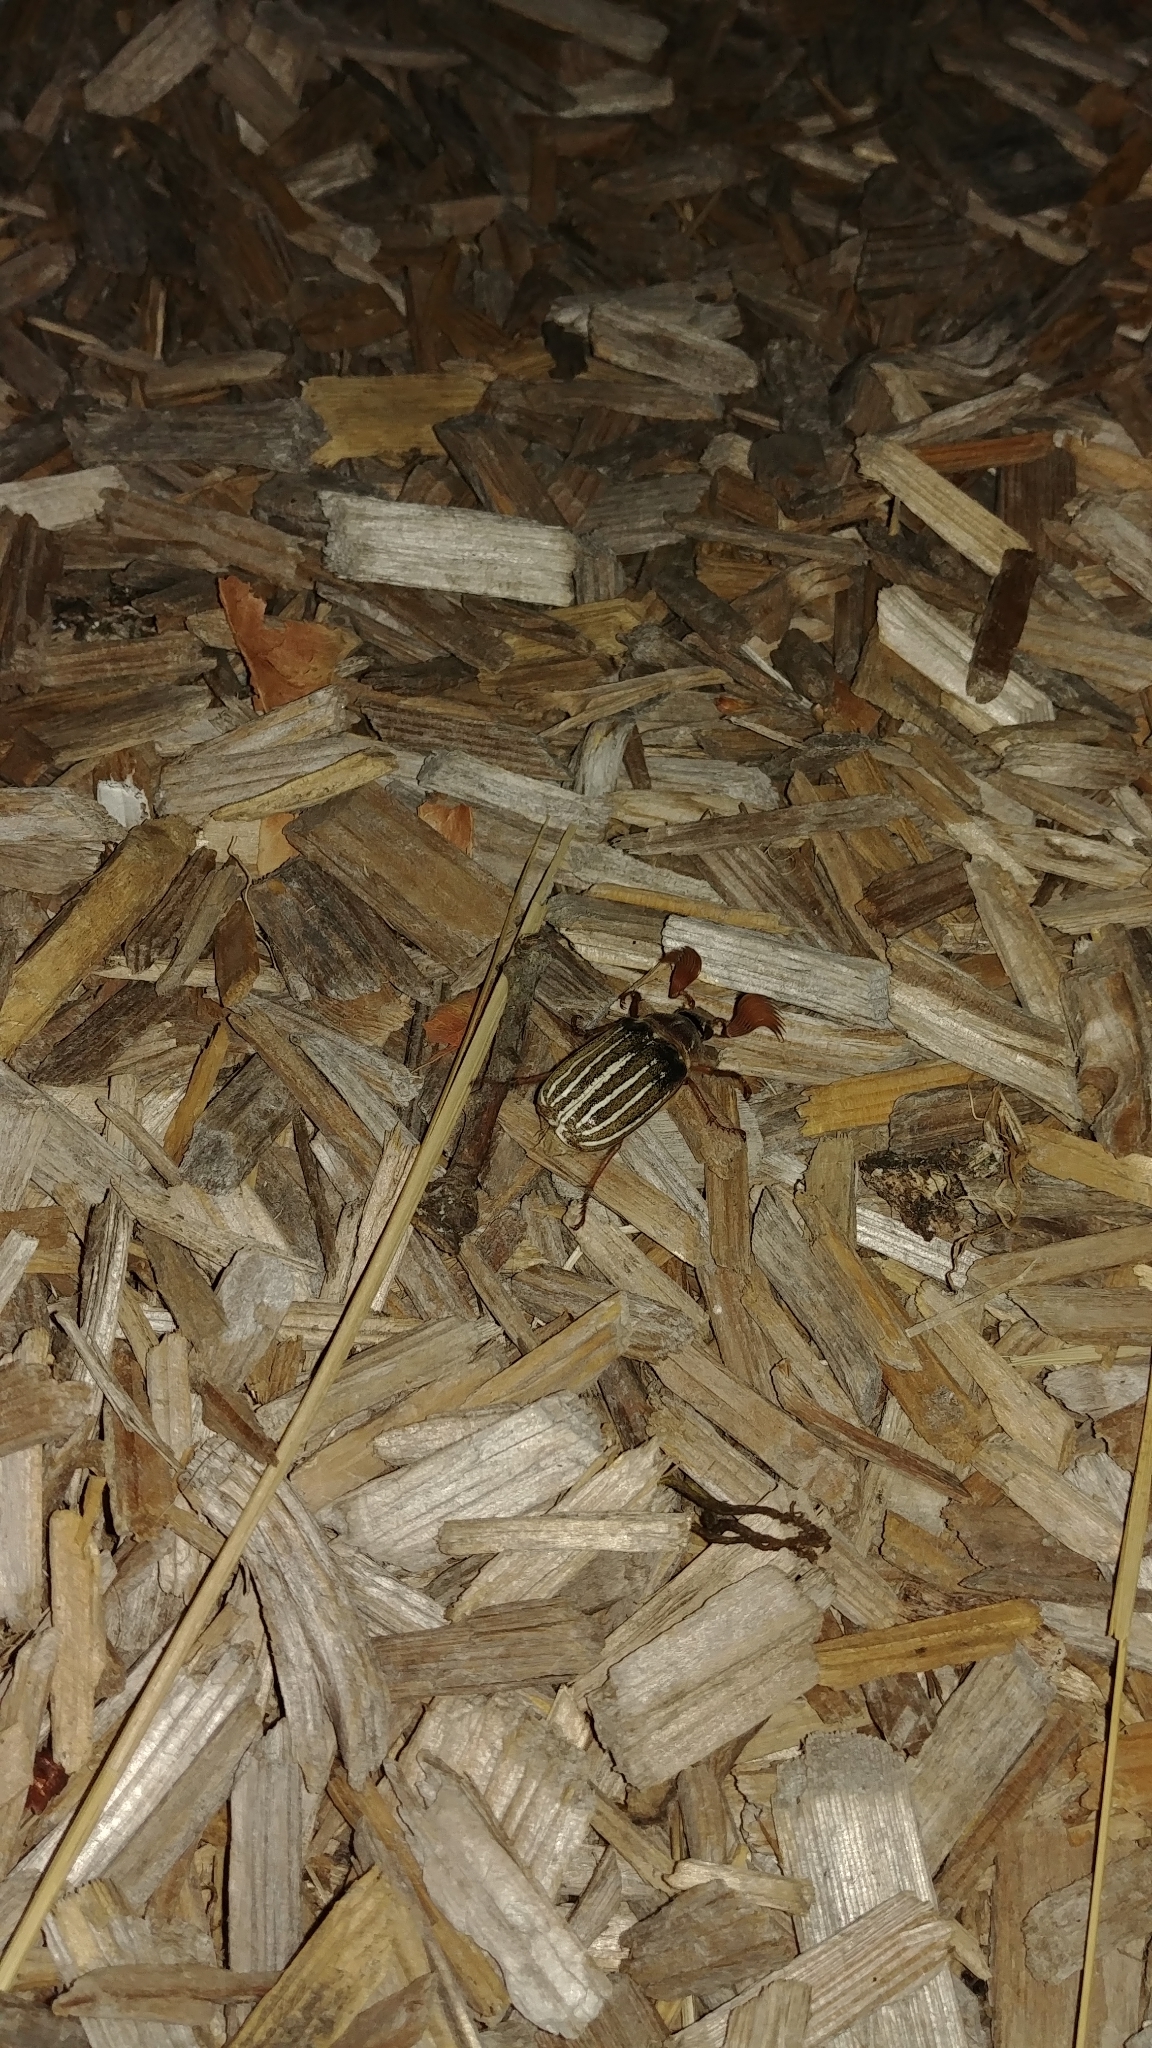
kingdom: Animalia
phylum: Arthropoda
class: Insecta
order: Coleoptera
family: Scarabaeidae
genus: Polyphylla
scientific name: Polyphylla crinita
